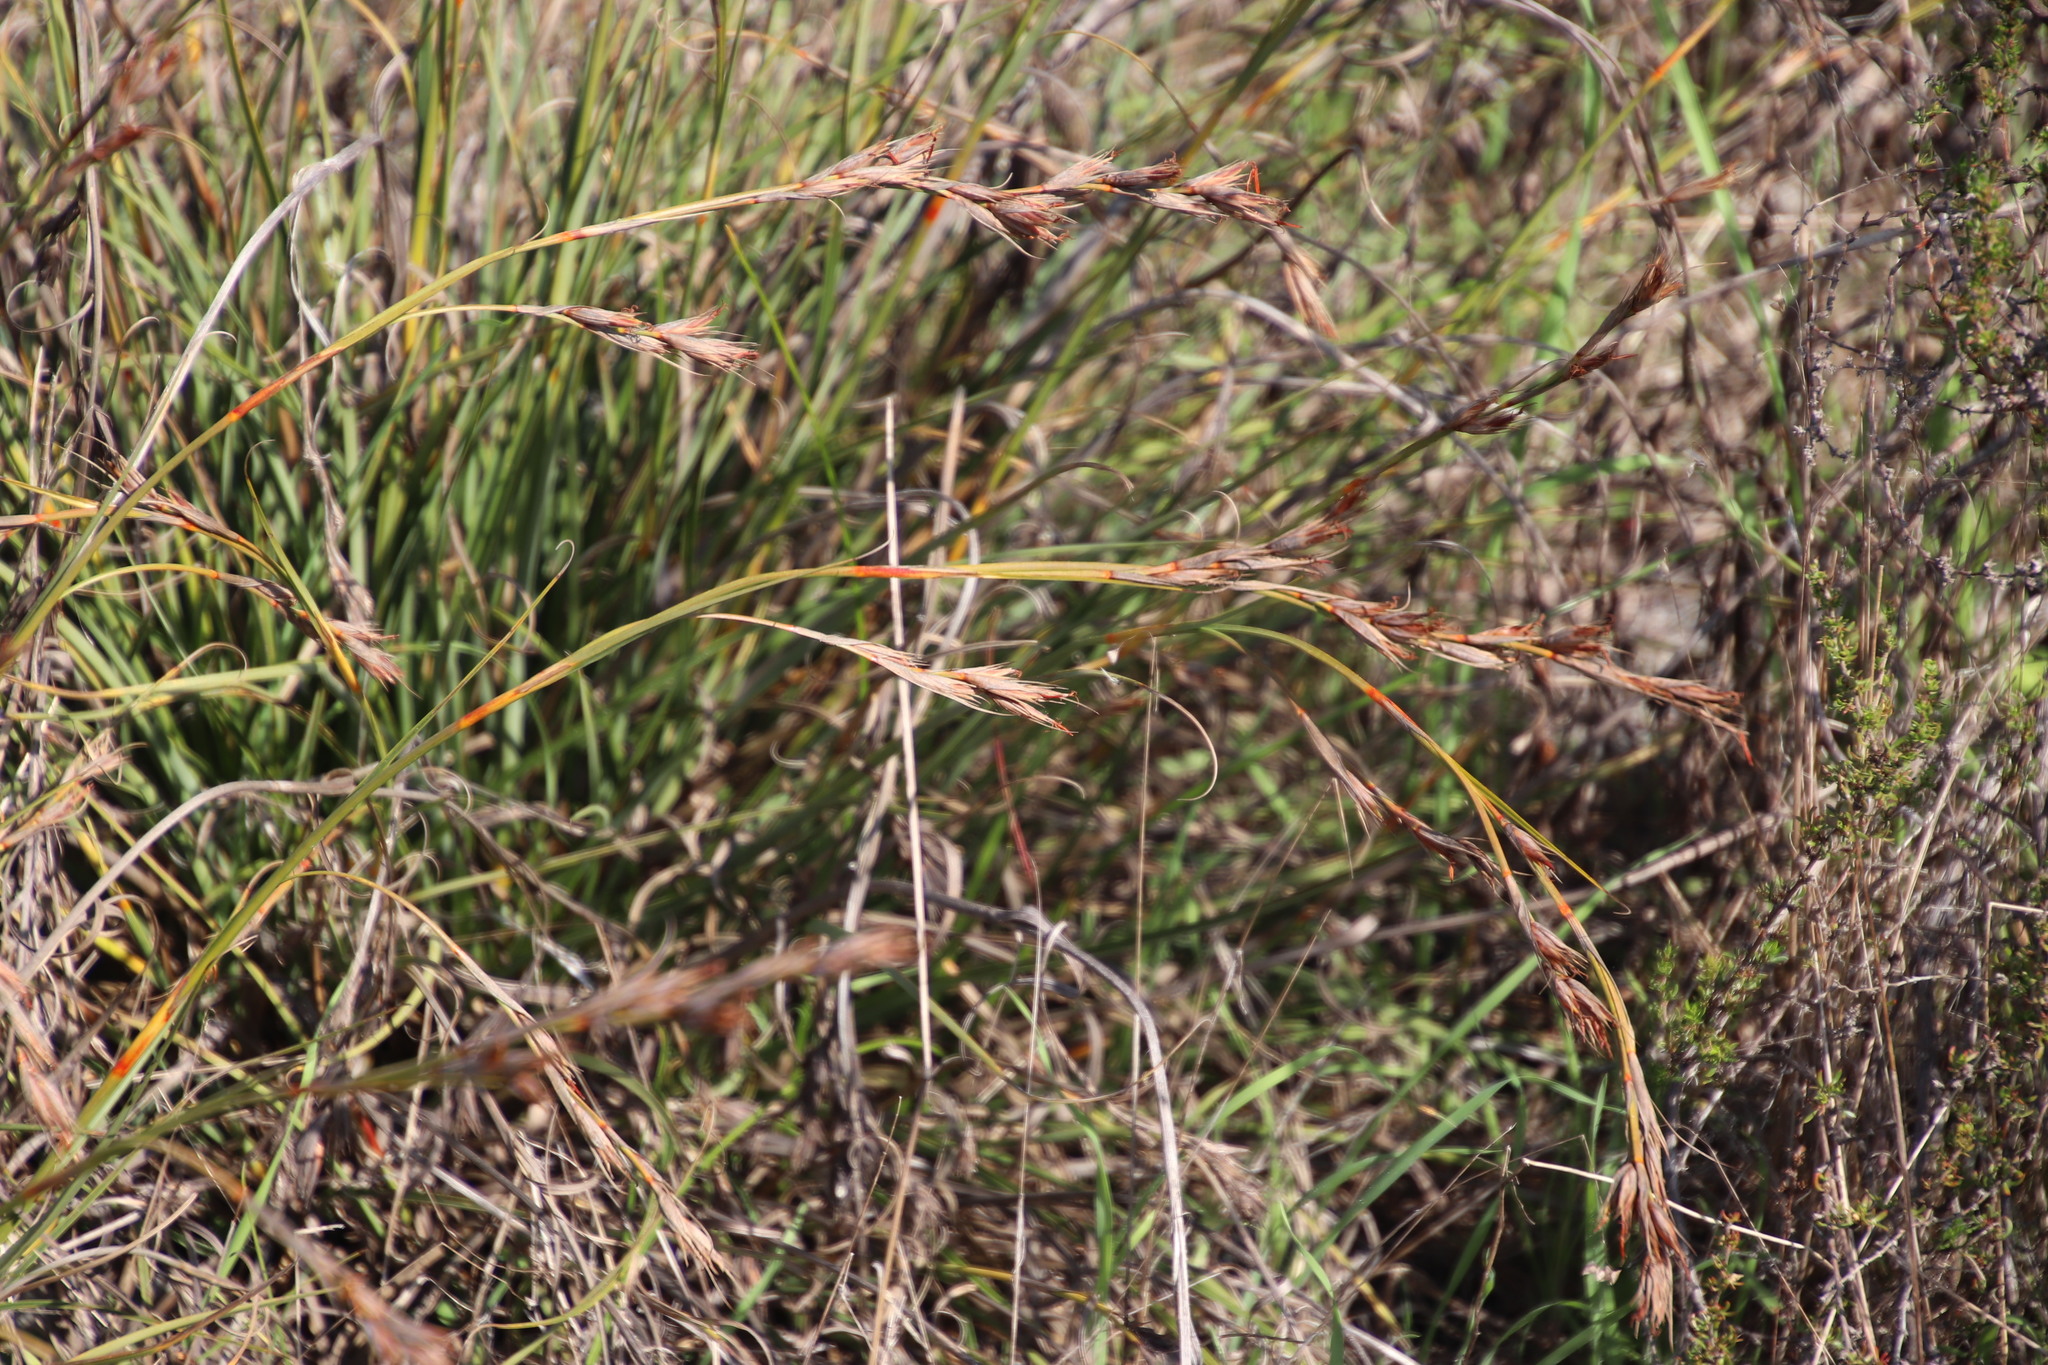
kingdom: Plantae
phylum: Tracheophyta
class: Liliopsida
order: Poales
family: Cyperaceae
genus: Tetraria
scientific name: Tetraria eximia
